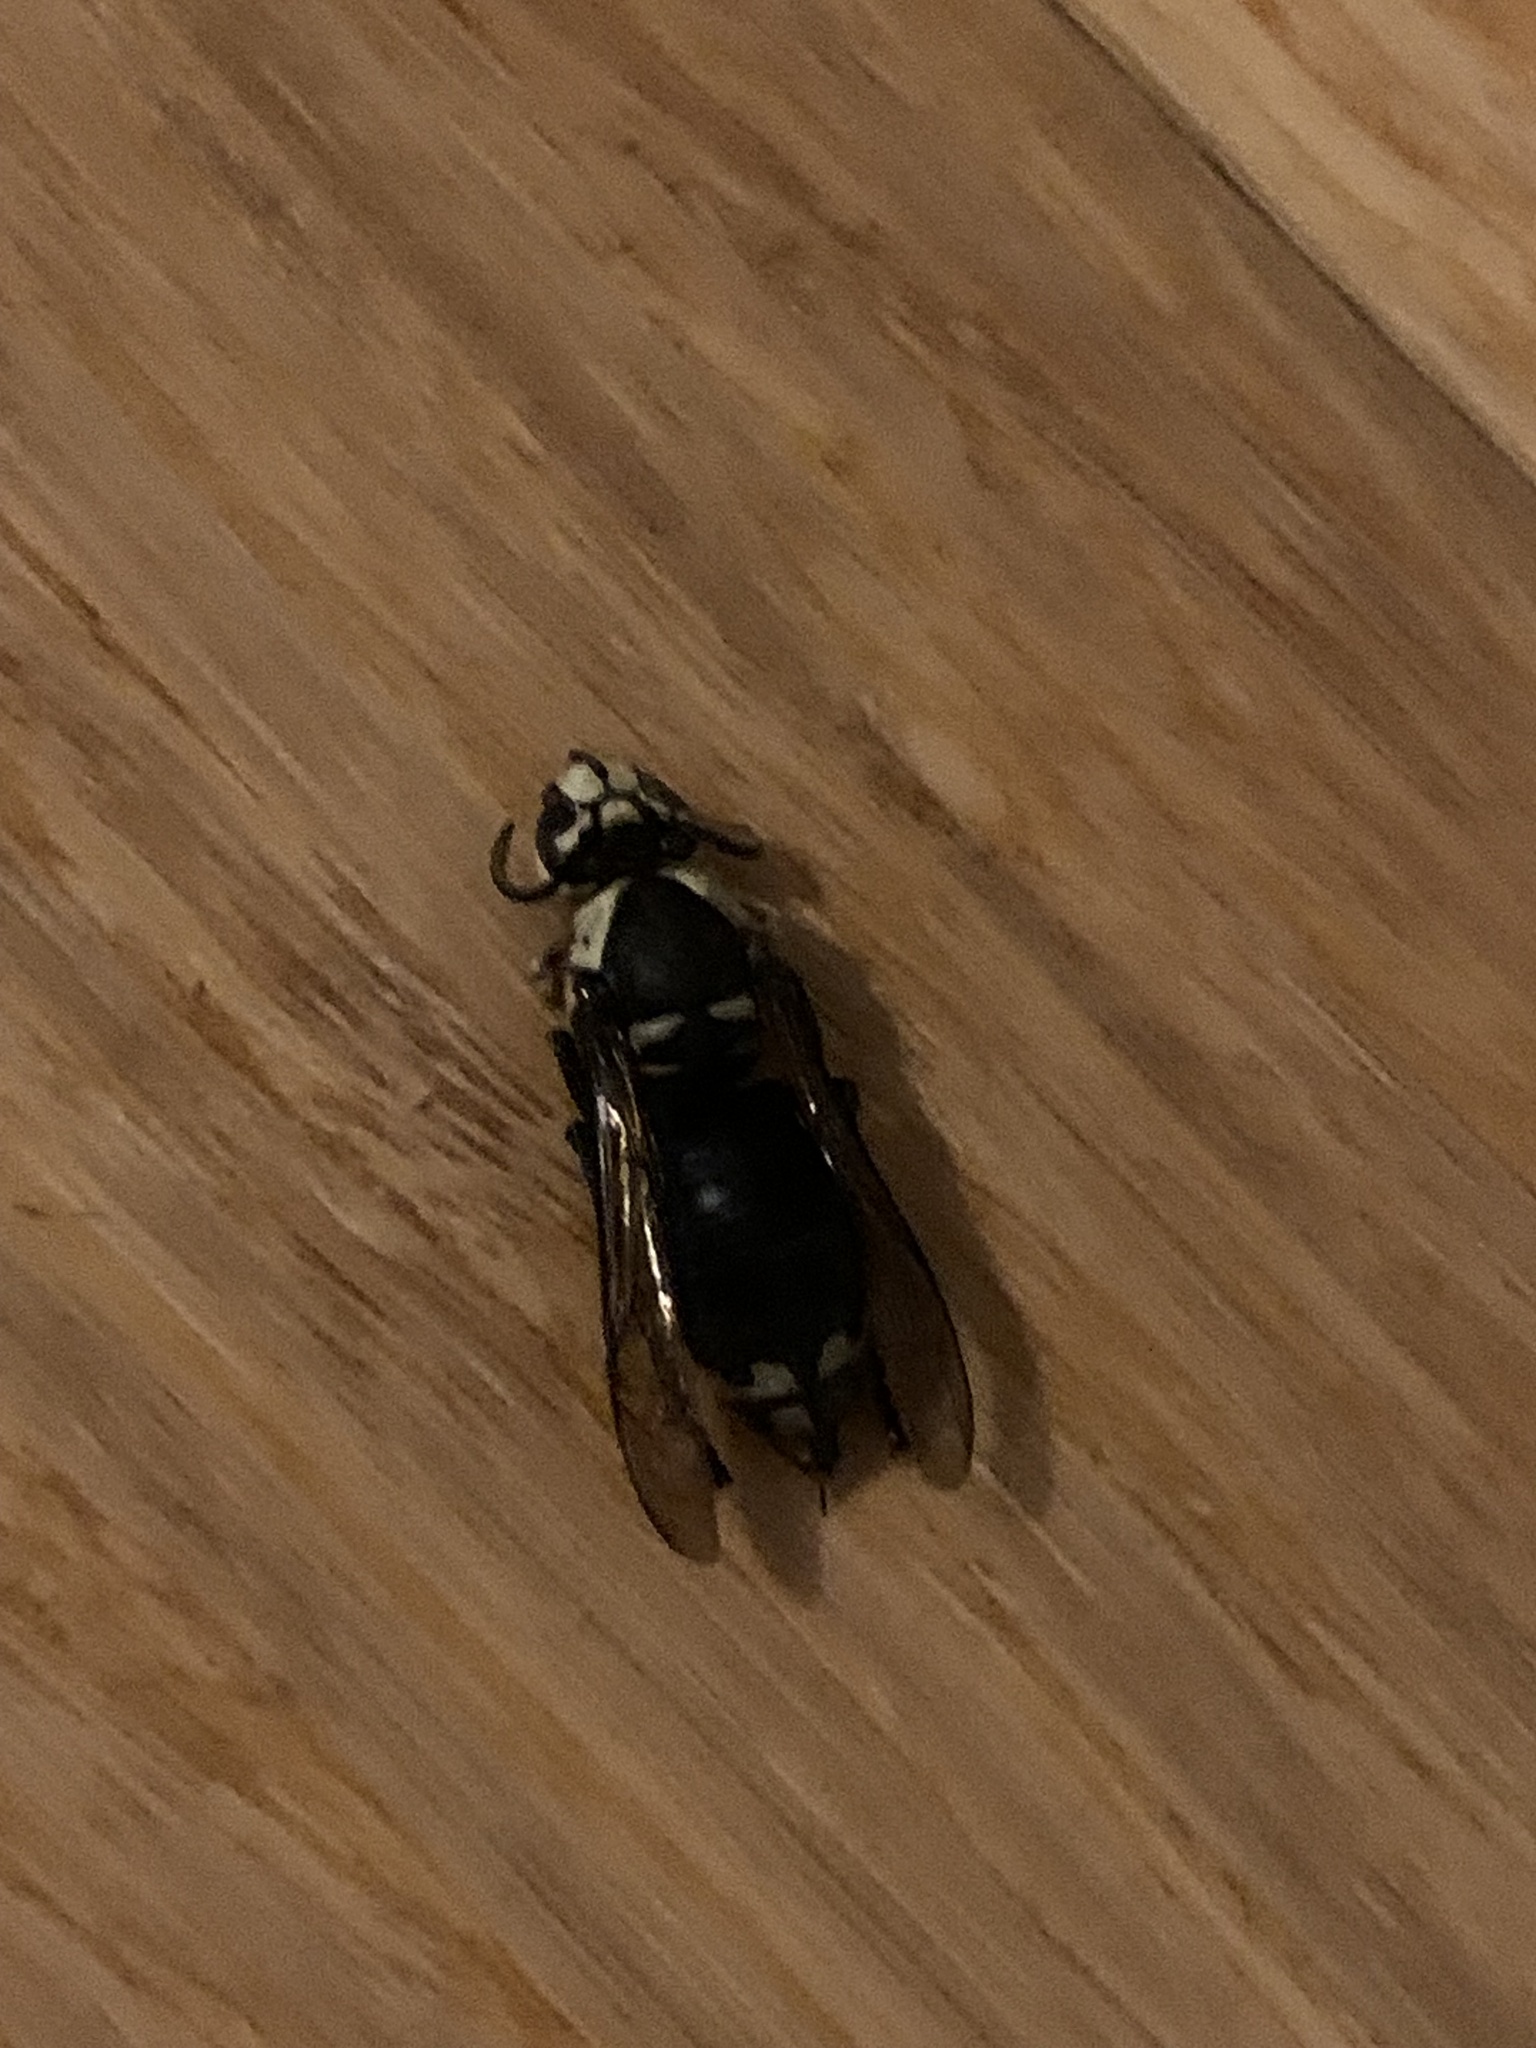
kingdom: Animalia
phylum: Arthropoda
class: Insecta
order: Hymenoptera
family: Vespidae
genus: Dolichovespula
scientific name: Dolichovespula maculata
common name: Bald-faced hornet
